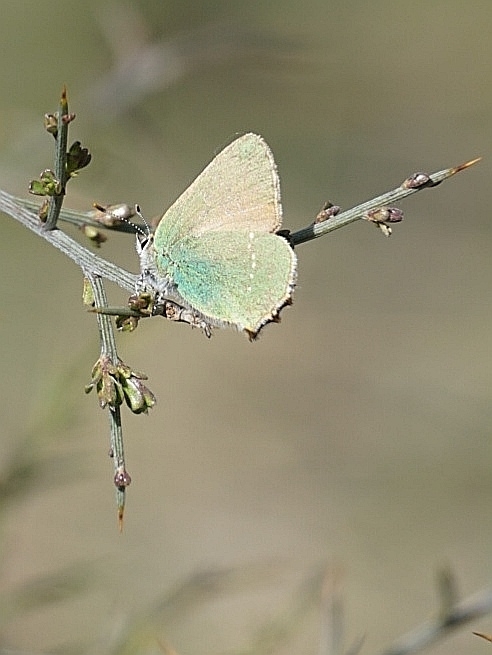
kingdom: Animalia
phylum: Arthropoda
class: Insecta
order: Lepidoptera
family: Lycaenidae
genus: Callophrys
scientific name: Callophrys rubi
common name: Green hairstreak
